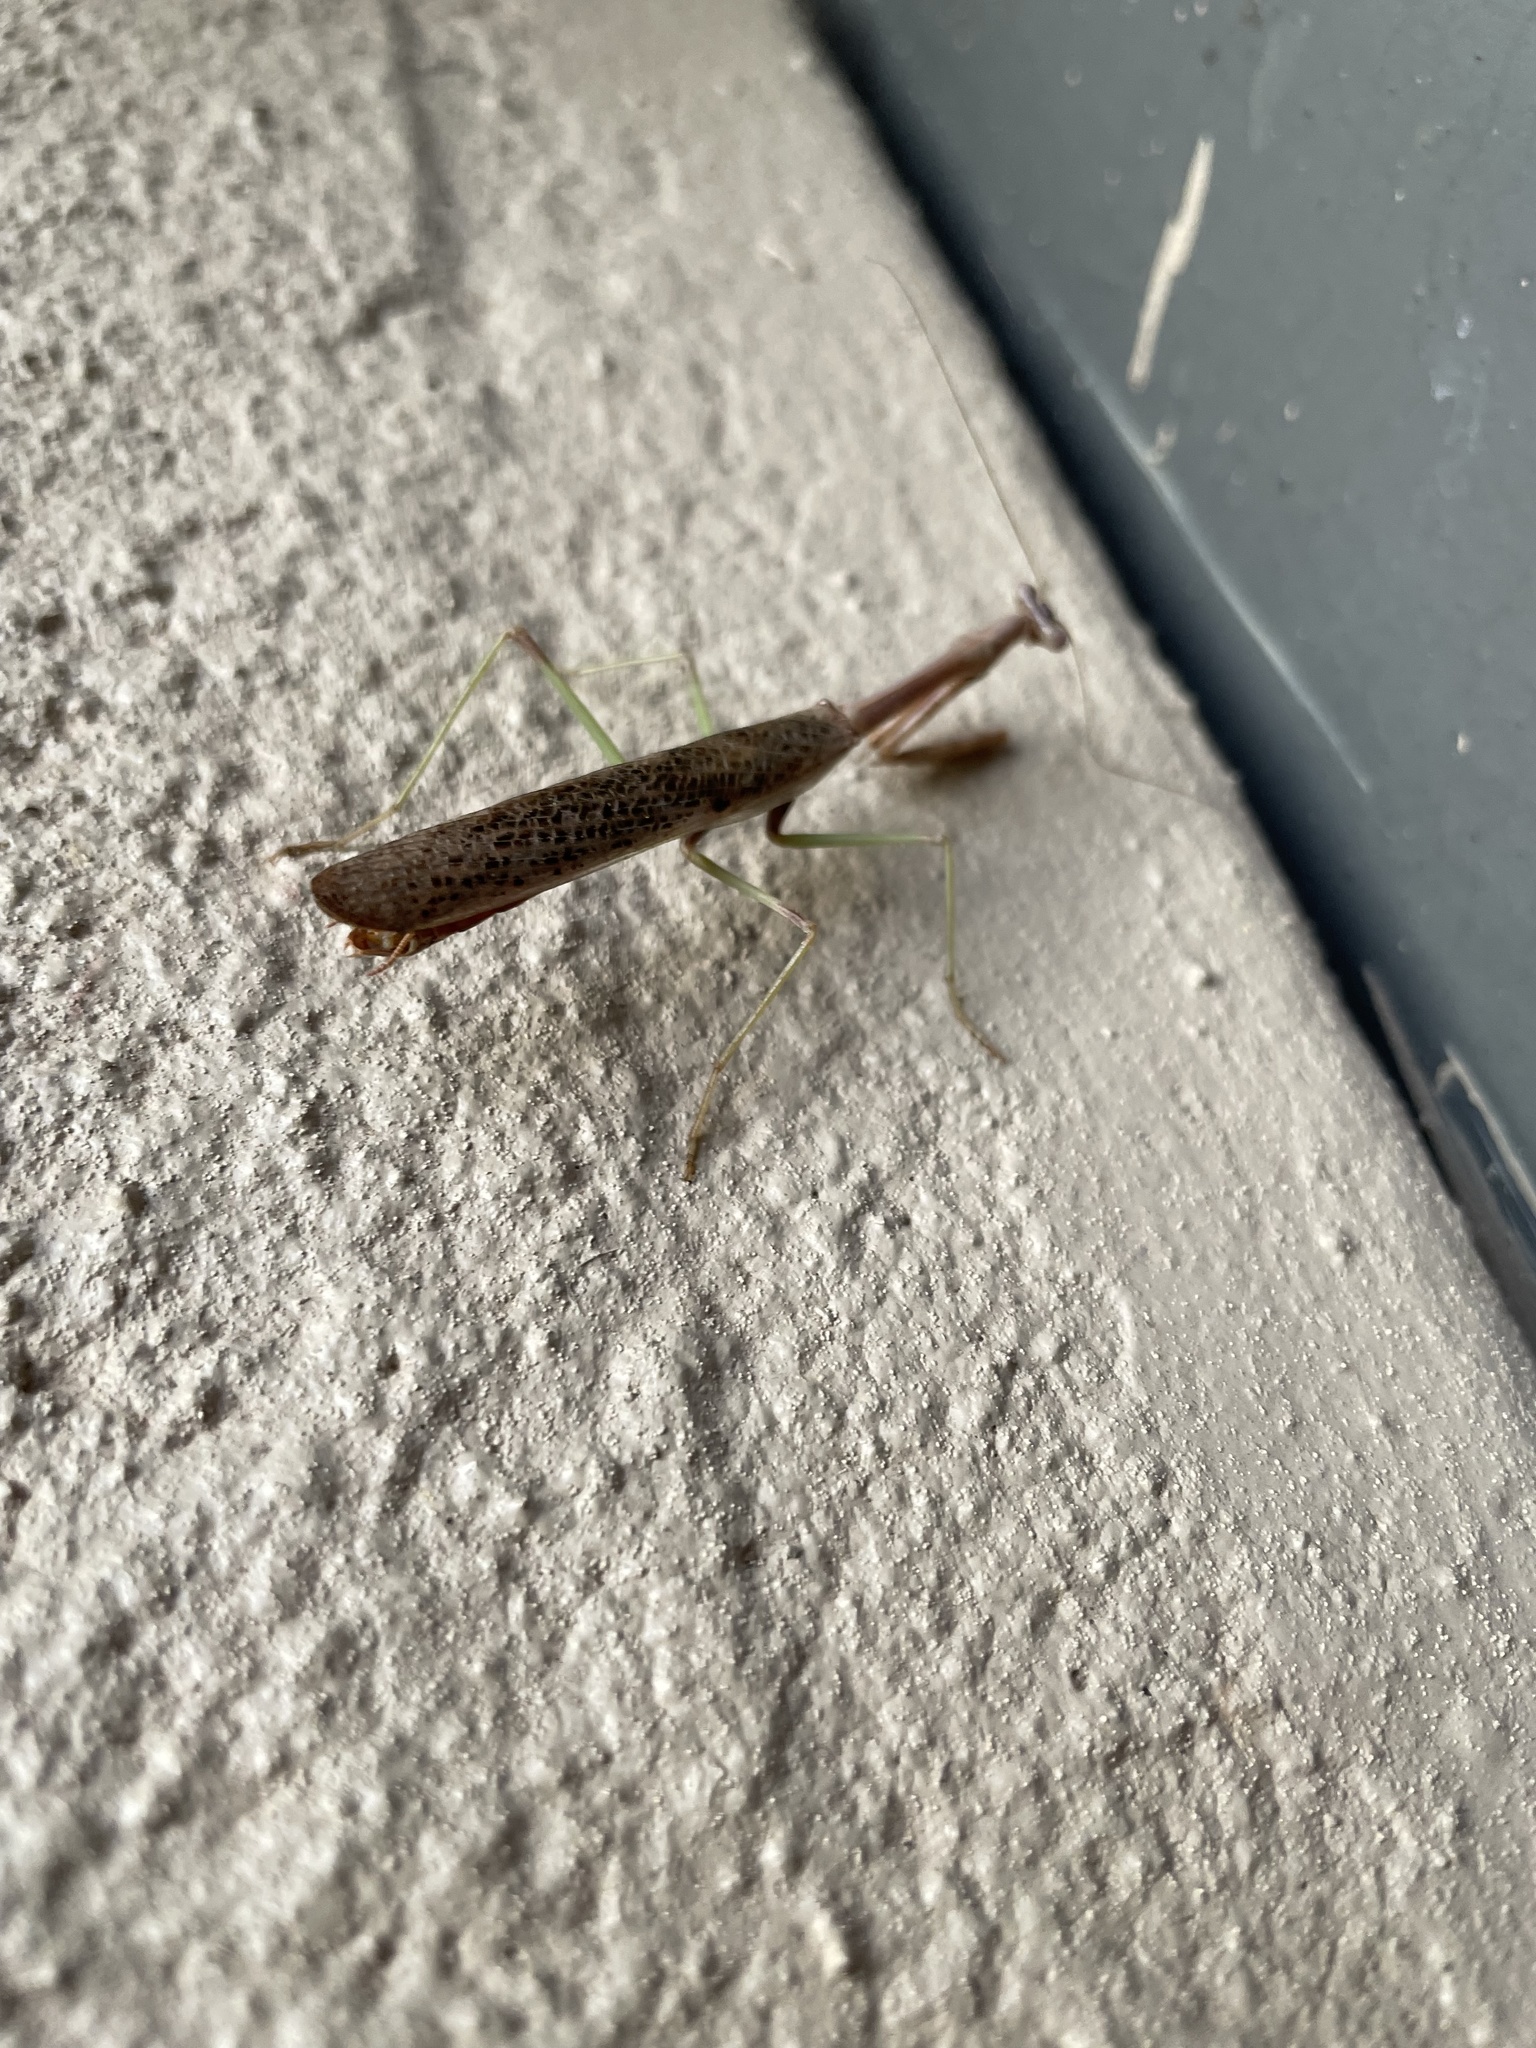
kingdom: Animalia
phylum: Arthropoda
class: Insecta
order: Mantodea
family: Mantidae
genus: Stagmomantis
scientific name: Stagmomantis carolina
